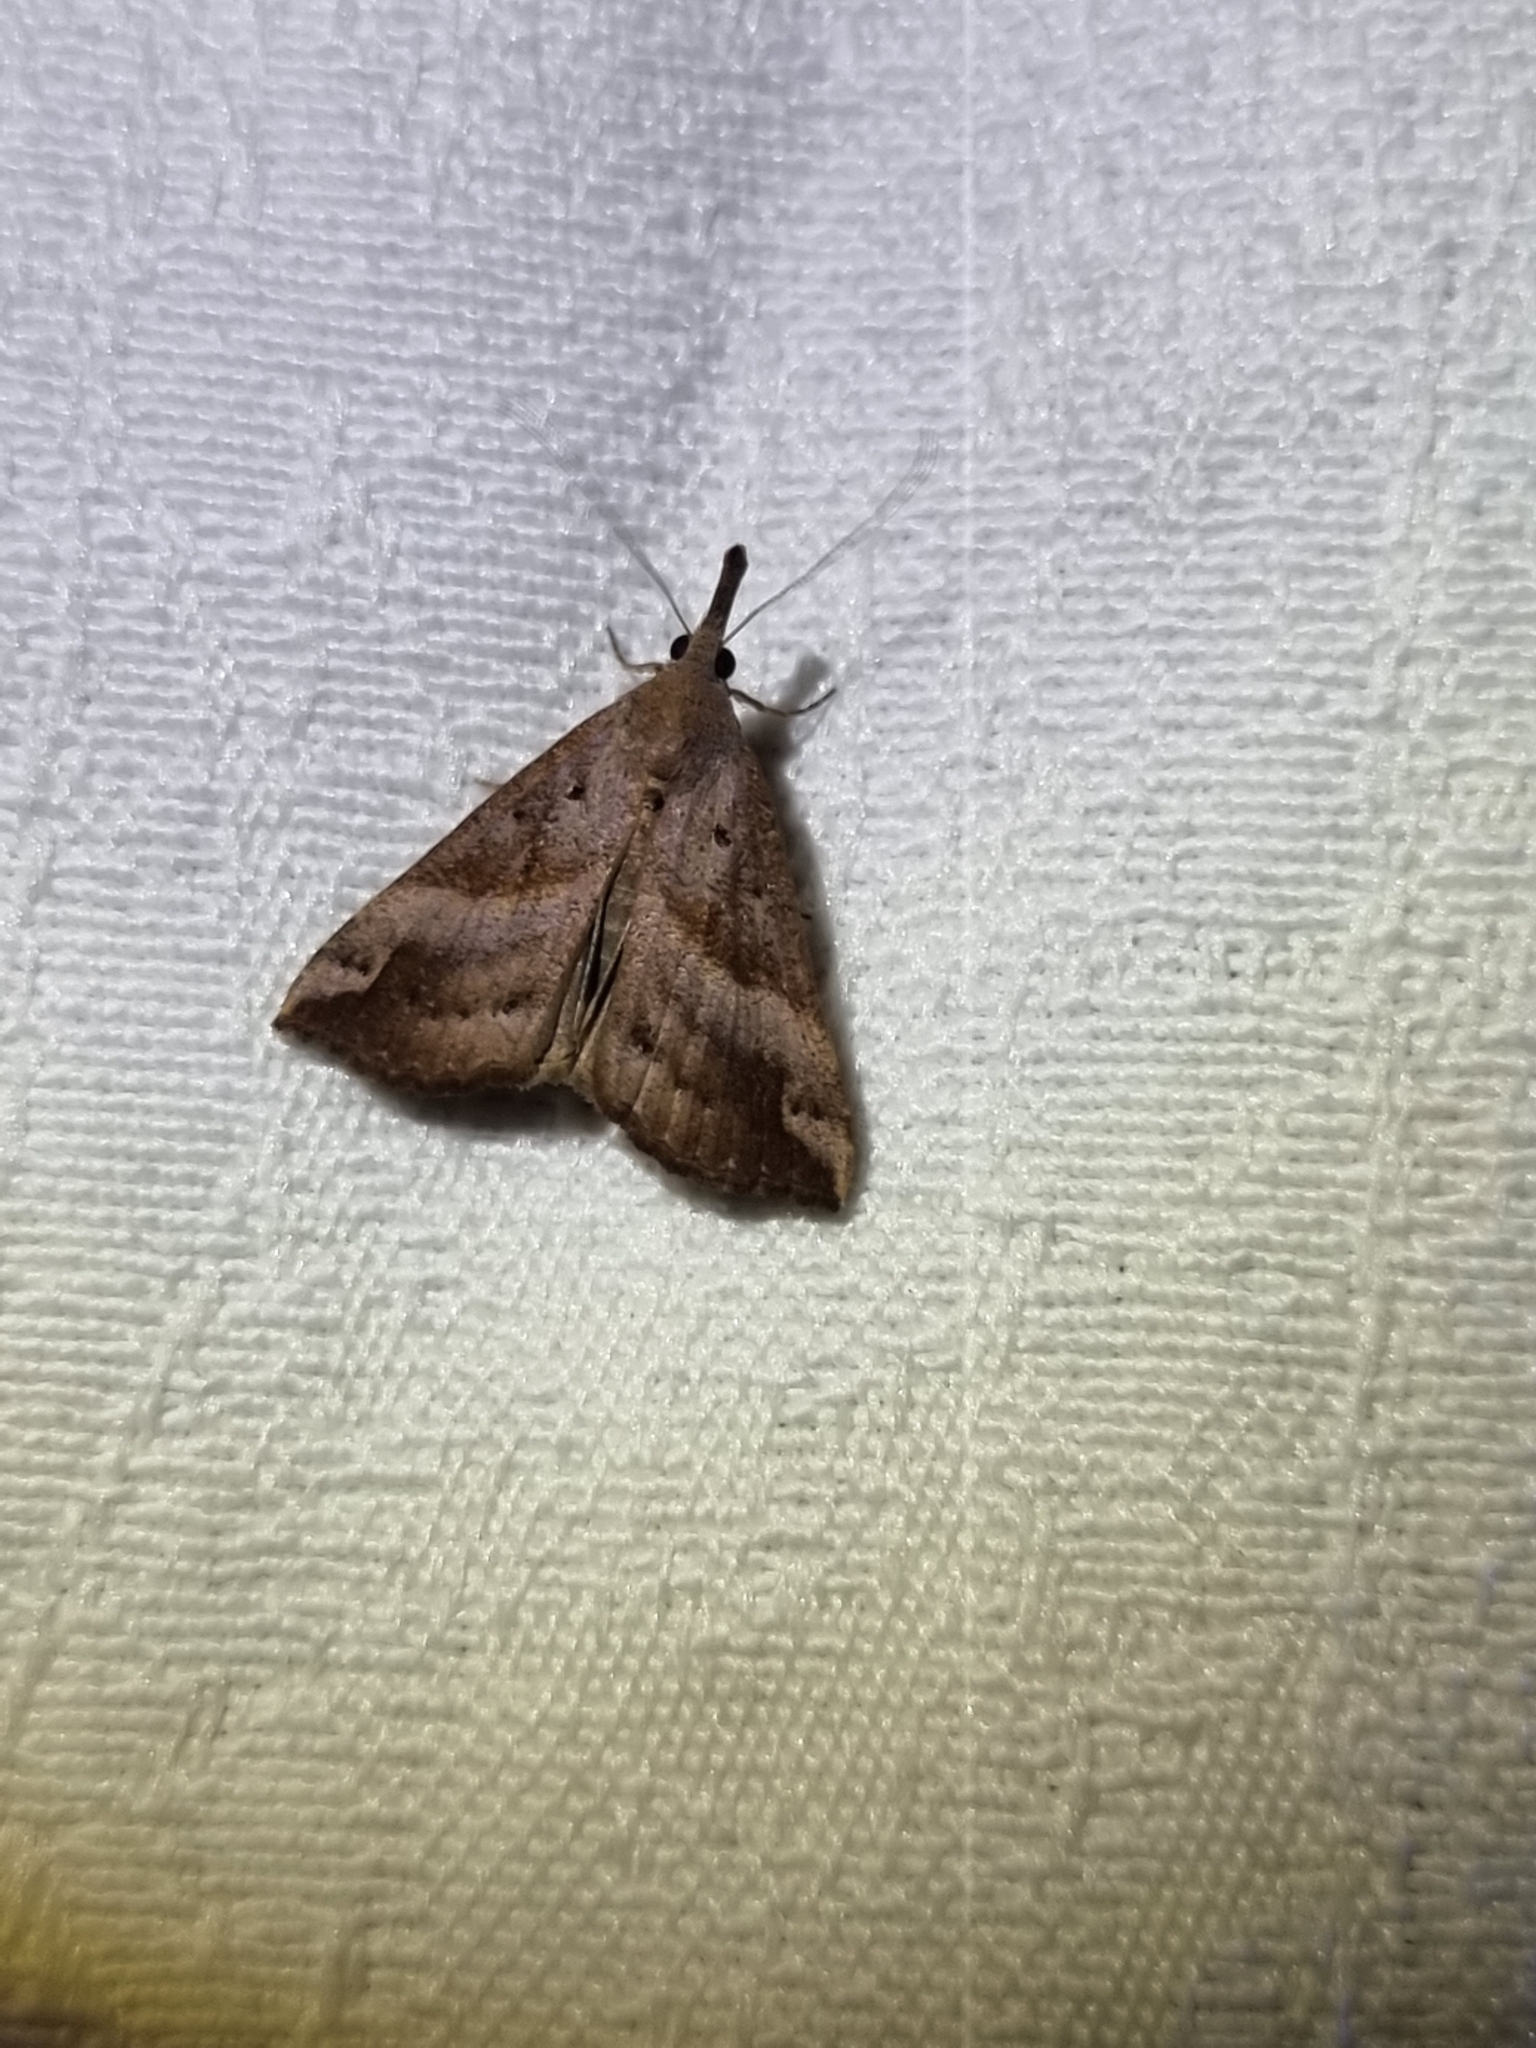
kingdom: Animalia
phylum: Arthropoda
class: Insecta
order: Lepidoptera
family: Erebidae
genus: Hypena
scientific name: Hypena pelodes
